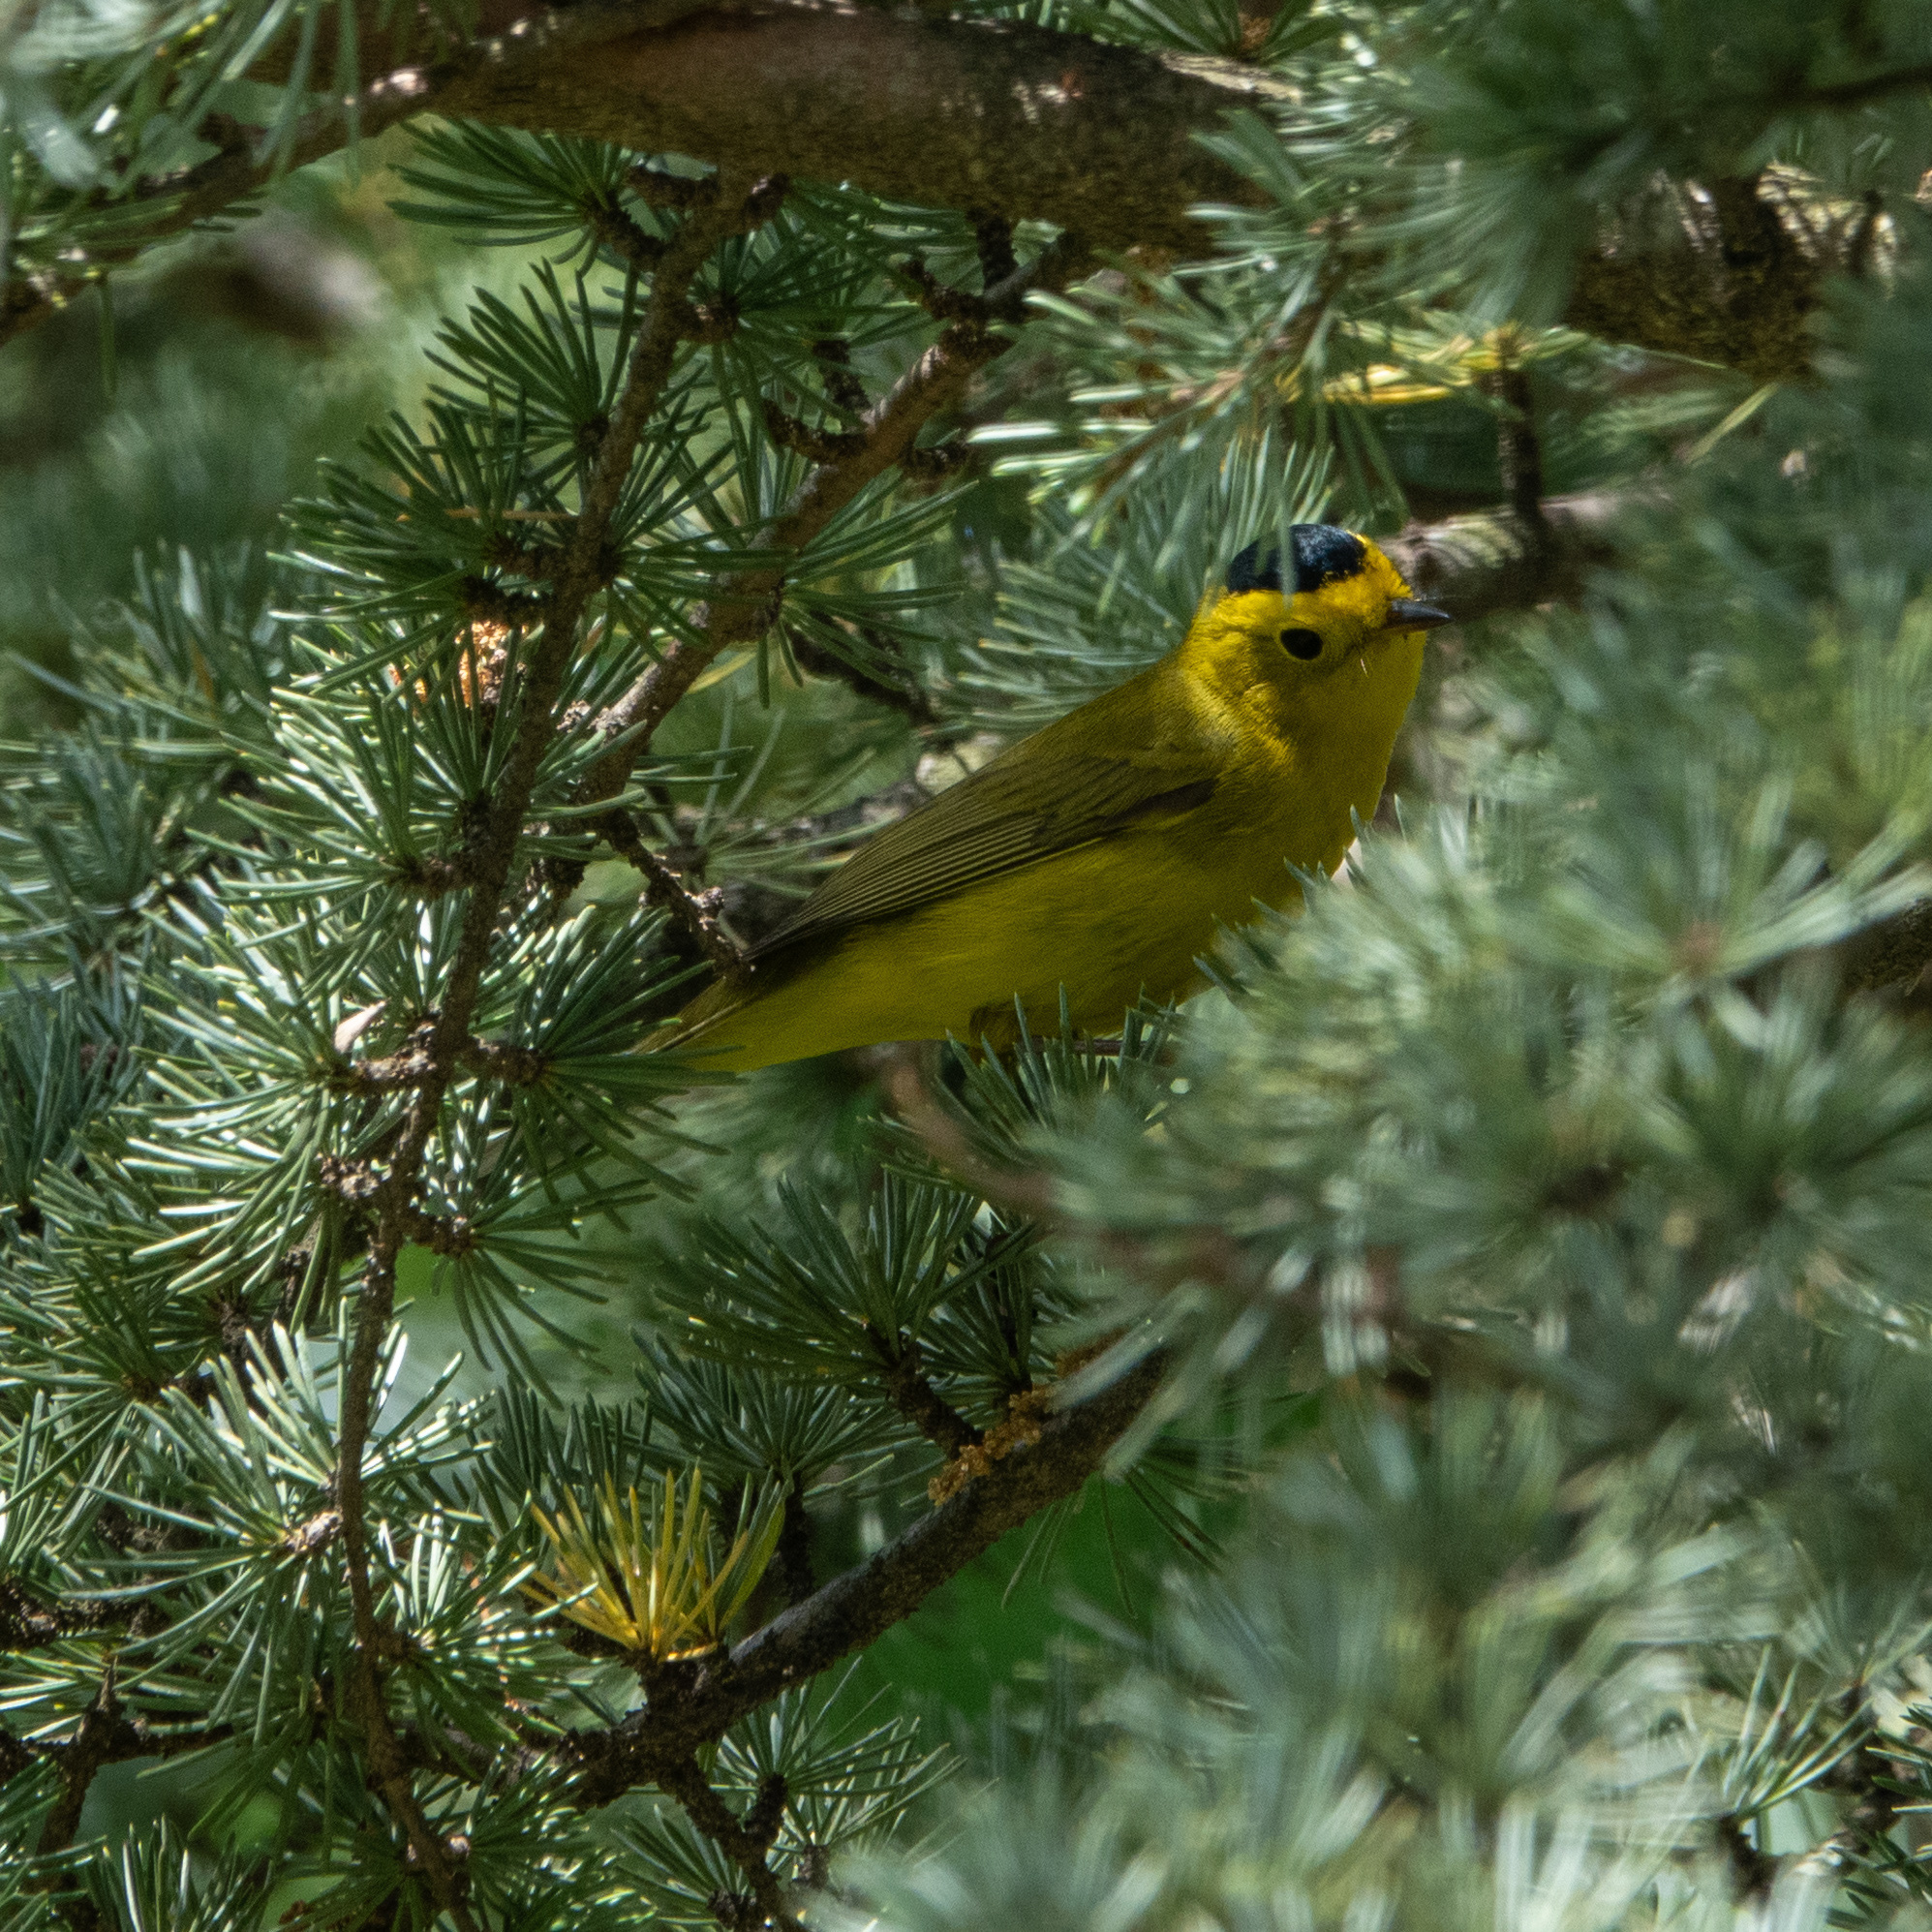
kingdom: Animalia
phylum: Chordata
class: Aves
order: Passeriformes
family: Parulidae
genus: Cardellina
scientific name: Cardellina pusilla
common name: Wilson's warbler
